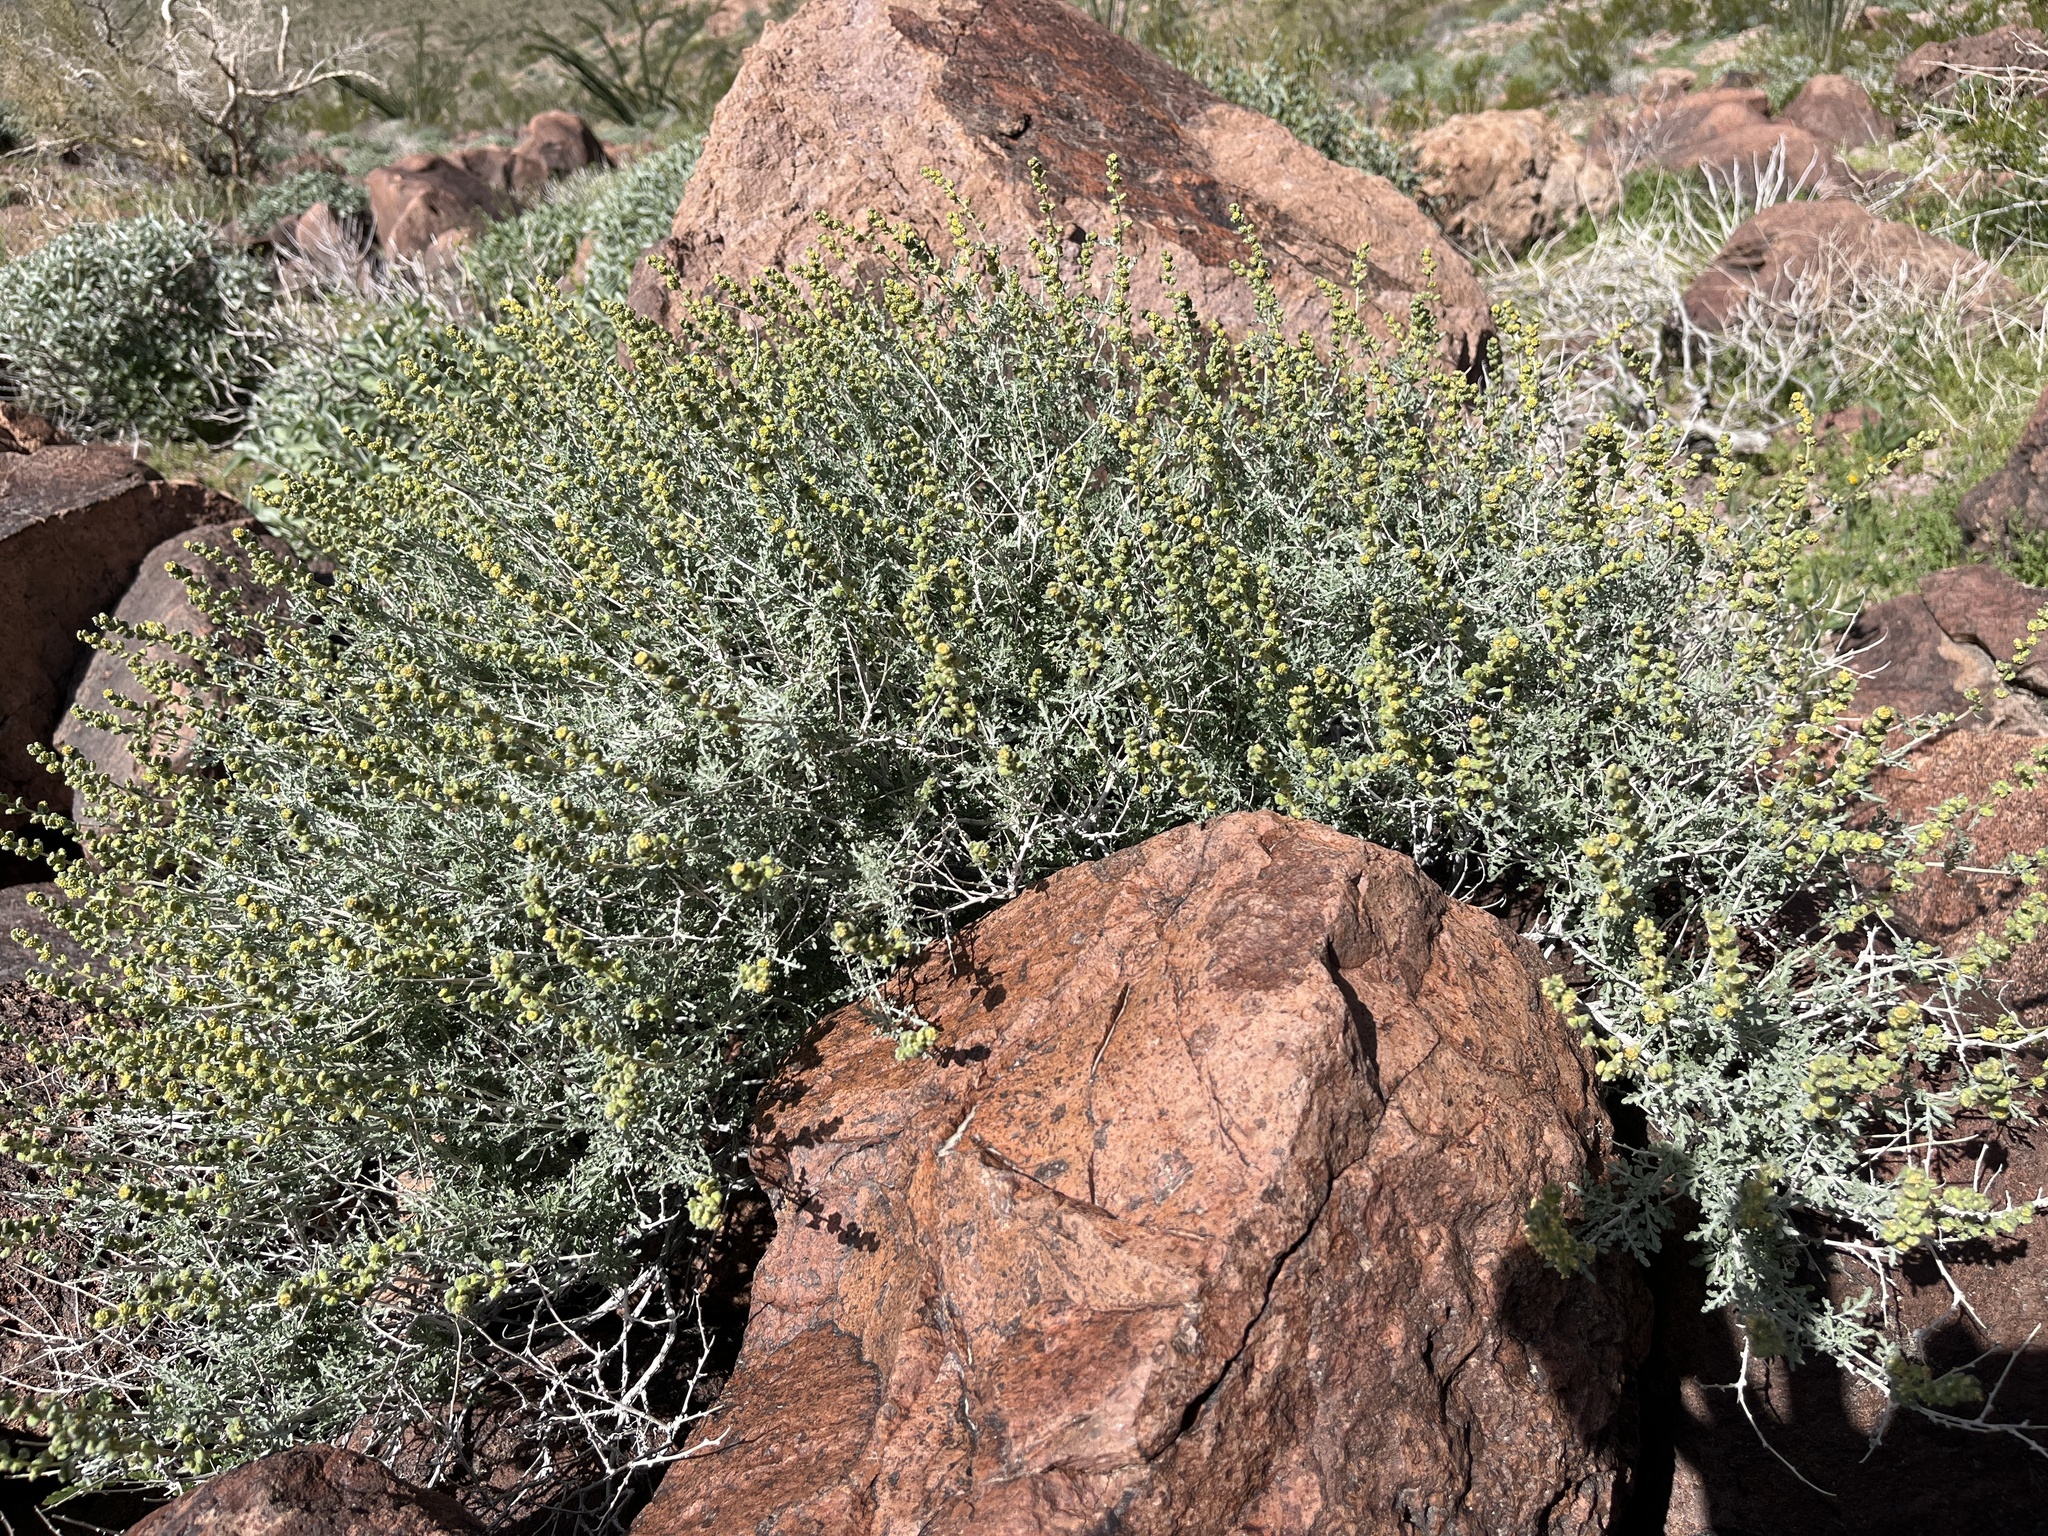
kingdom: Plantae
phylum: Tracheophyta
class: Magnoliopsida
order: Asterales
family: Asteraceae
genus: Ambrosia
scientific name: Ambrosia dumosa
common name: Bur-sage
